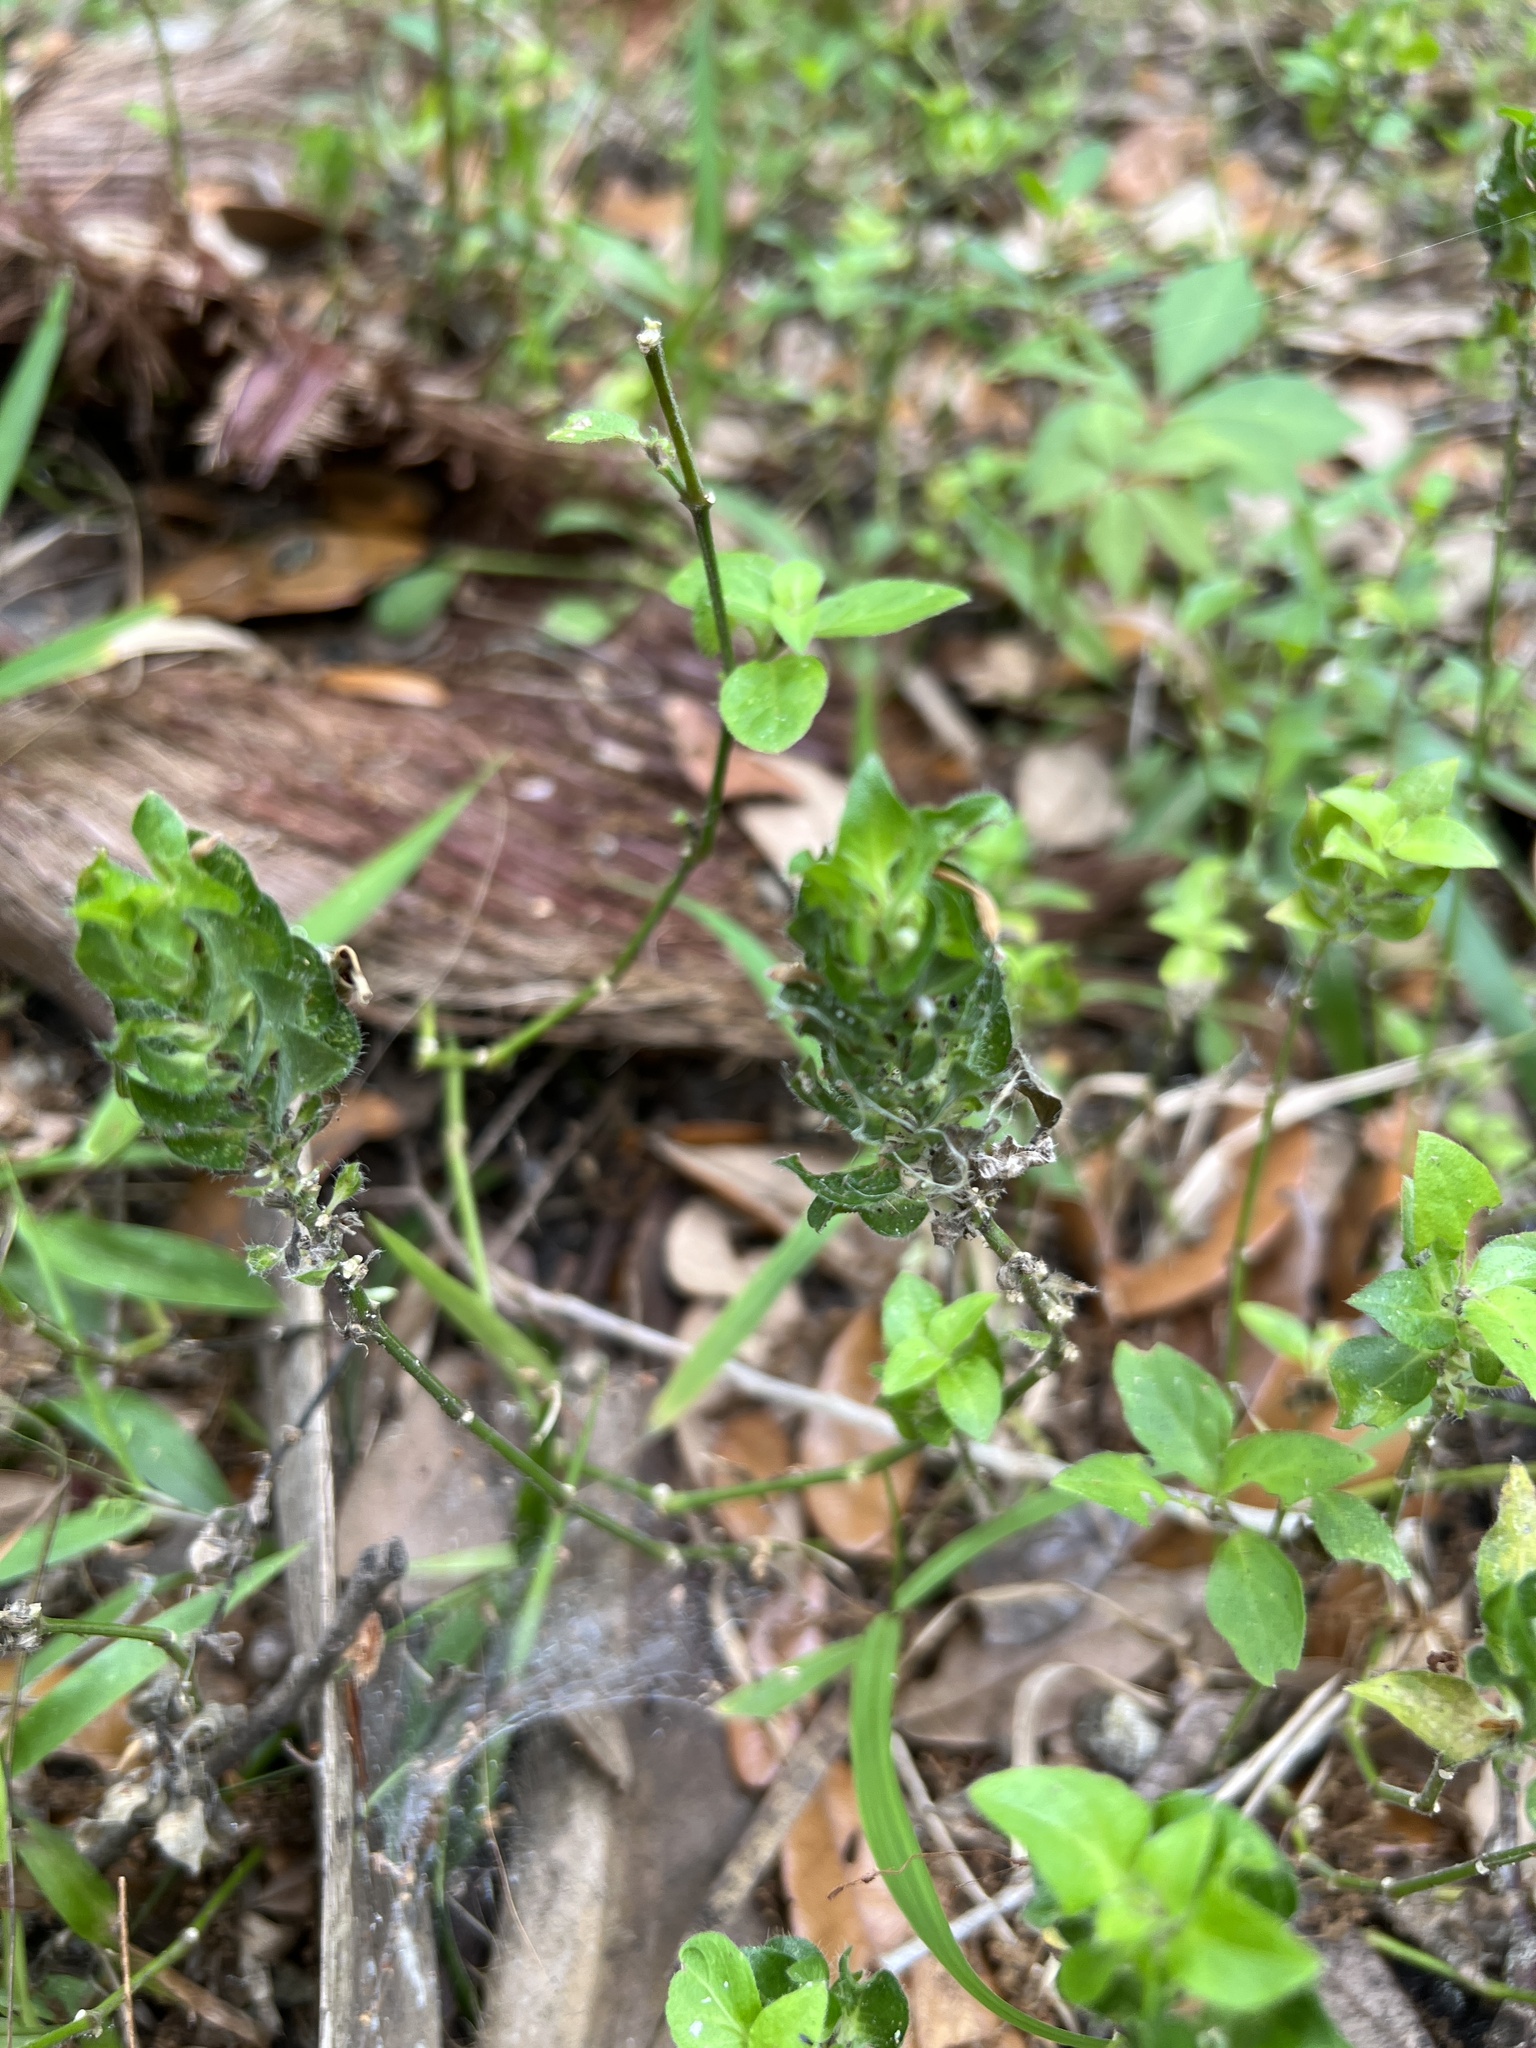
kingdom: Plantae
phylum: Tracheophyta
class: Magnoliopsida
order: Lamiales
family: Acanthaceae
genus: Ruellia
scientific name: Ruellia blechum
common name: Browne's blechum
